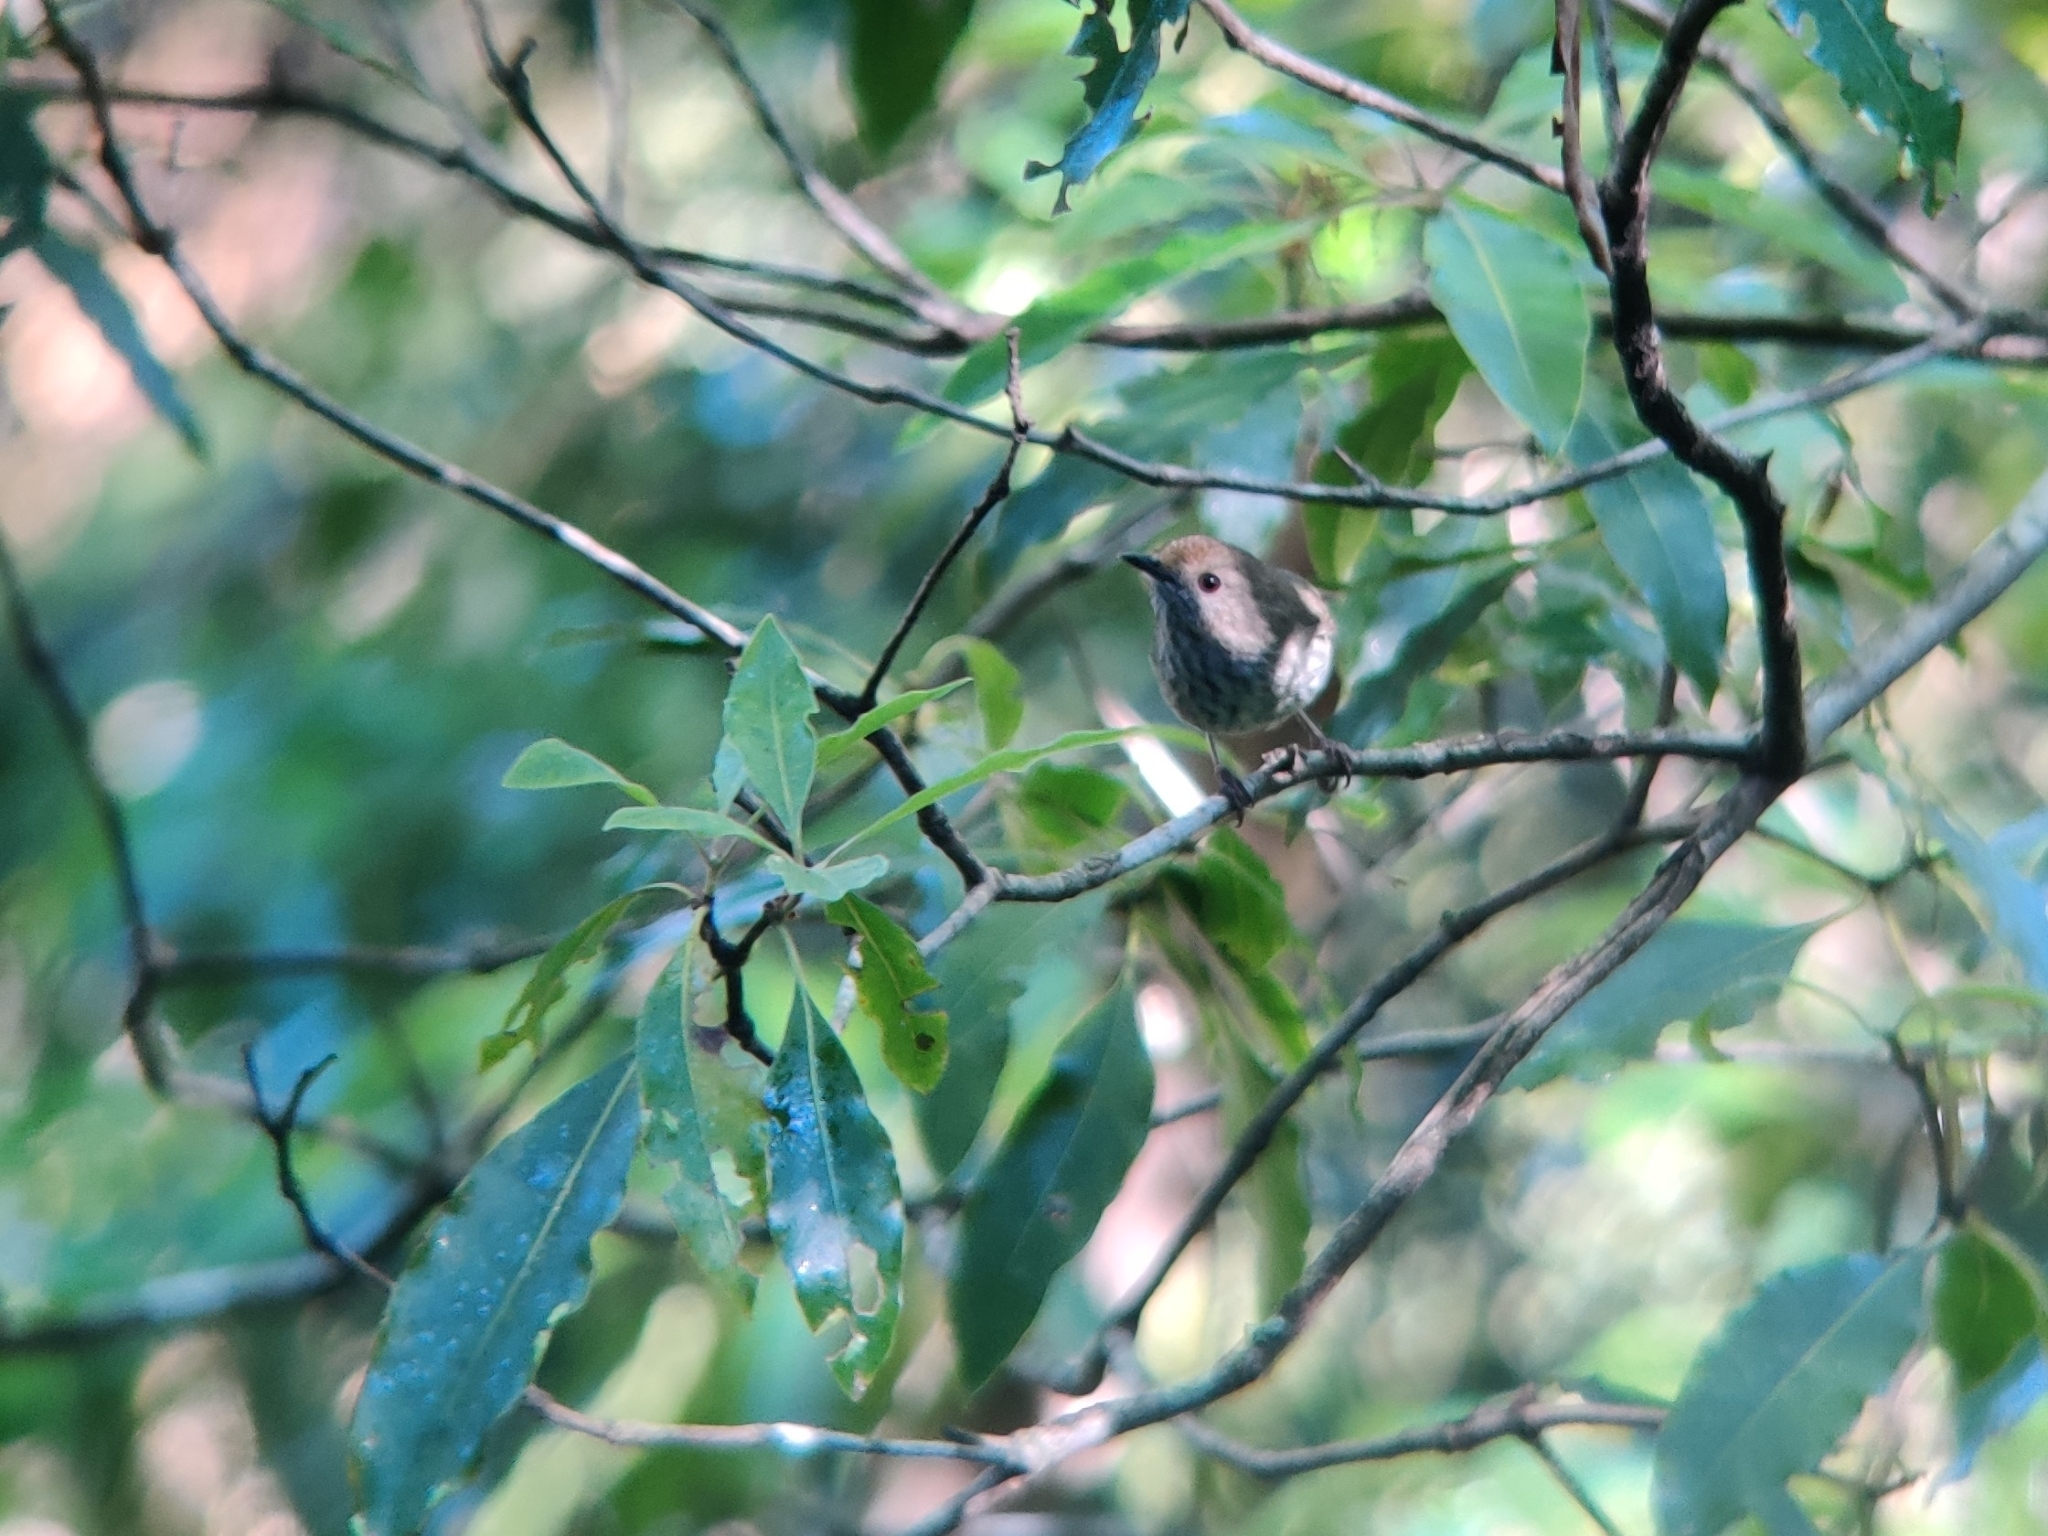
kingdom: Animalia
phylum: Chordata
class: Aves
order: Passeriformes
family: Acanthizidae
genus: Acanthiza
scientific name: Acanthiza pusilla
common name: Brown thornbill
